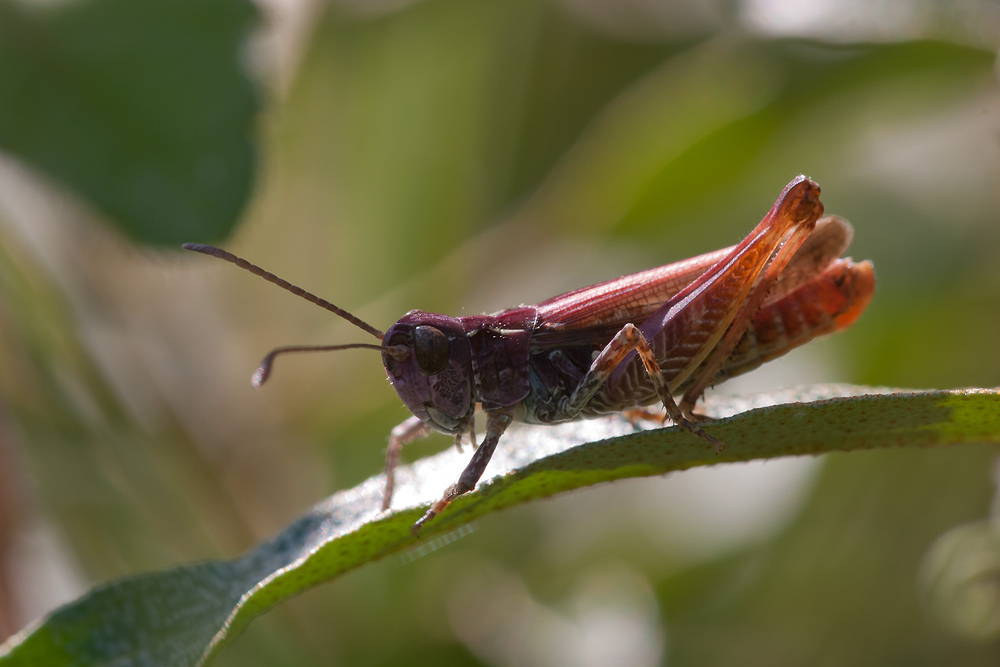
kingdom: Animalia
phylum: Arthropoda
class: Insecta
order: Orthoptera
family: Acrididae
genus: Myrmeleotettix
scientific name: Myrmeleotettix maculatus
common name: Mottled grasshopper
